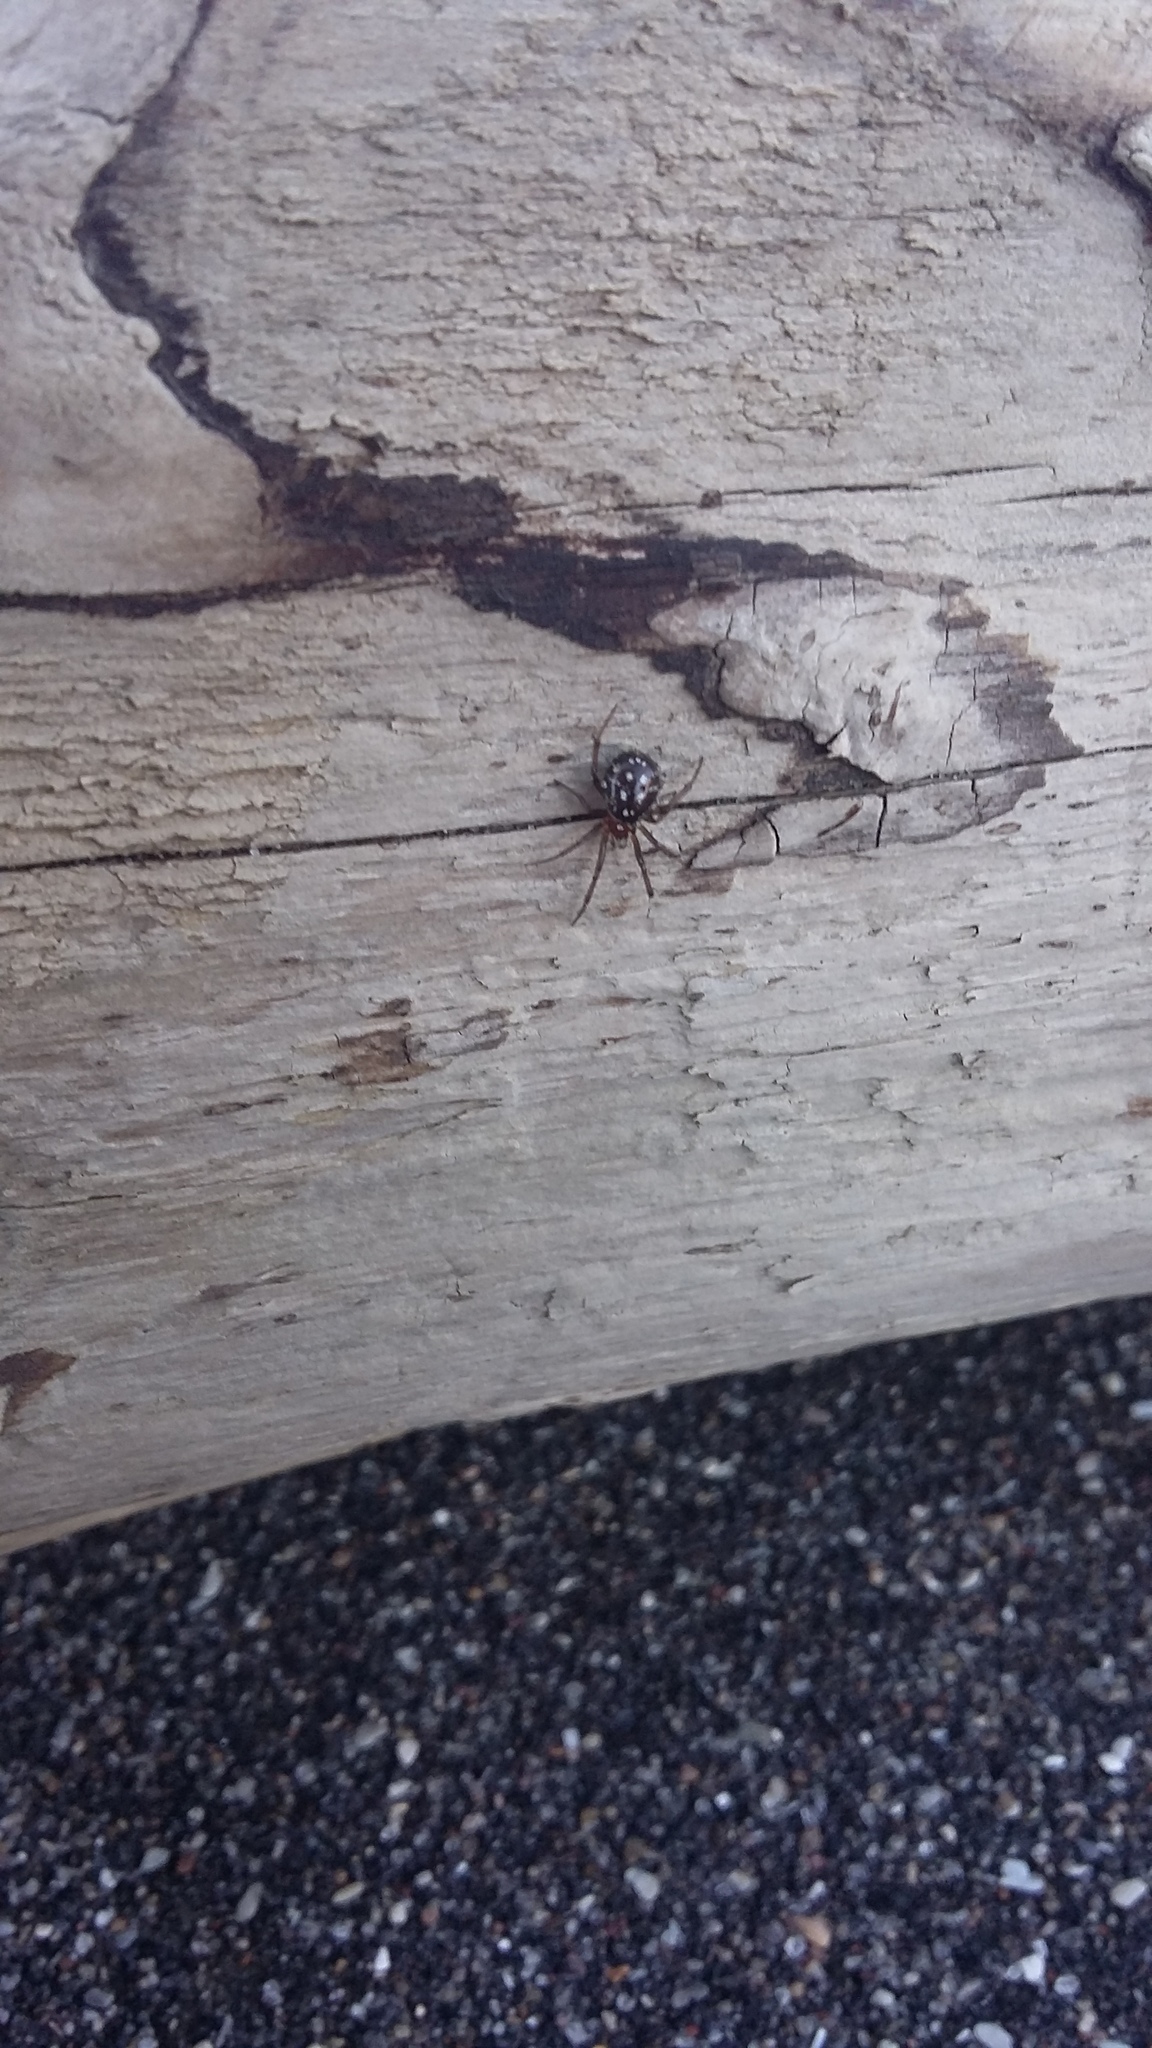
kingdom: Animalia
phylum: Arthropoda
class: Arachnida
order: Araneae
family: Theridiidae
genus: Steatoda
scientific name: Steatoda capensis
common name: Cobweb weaver
